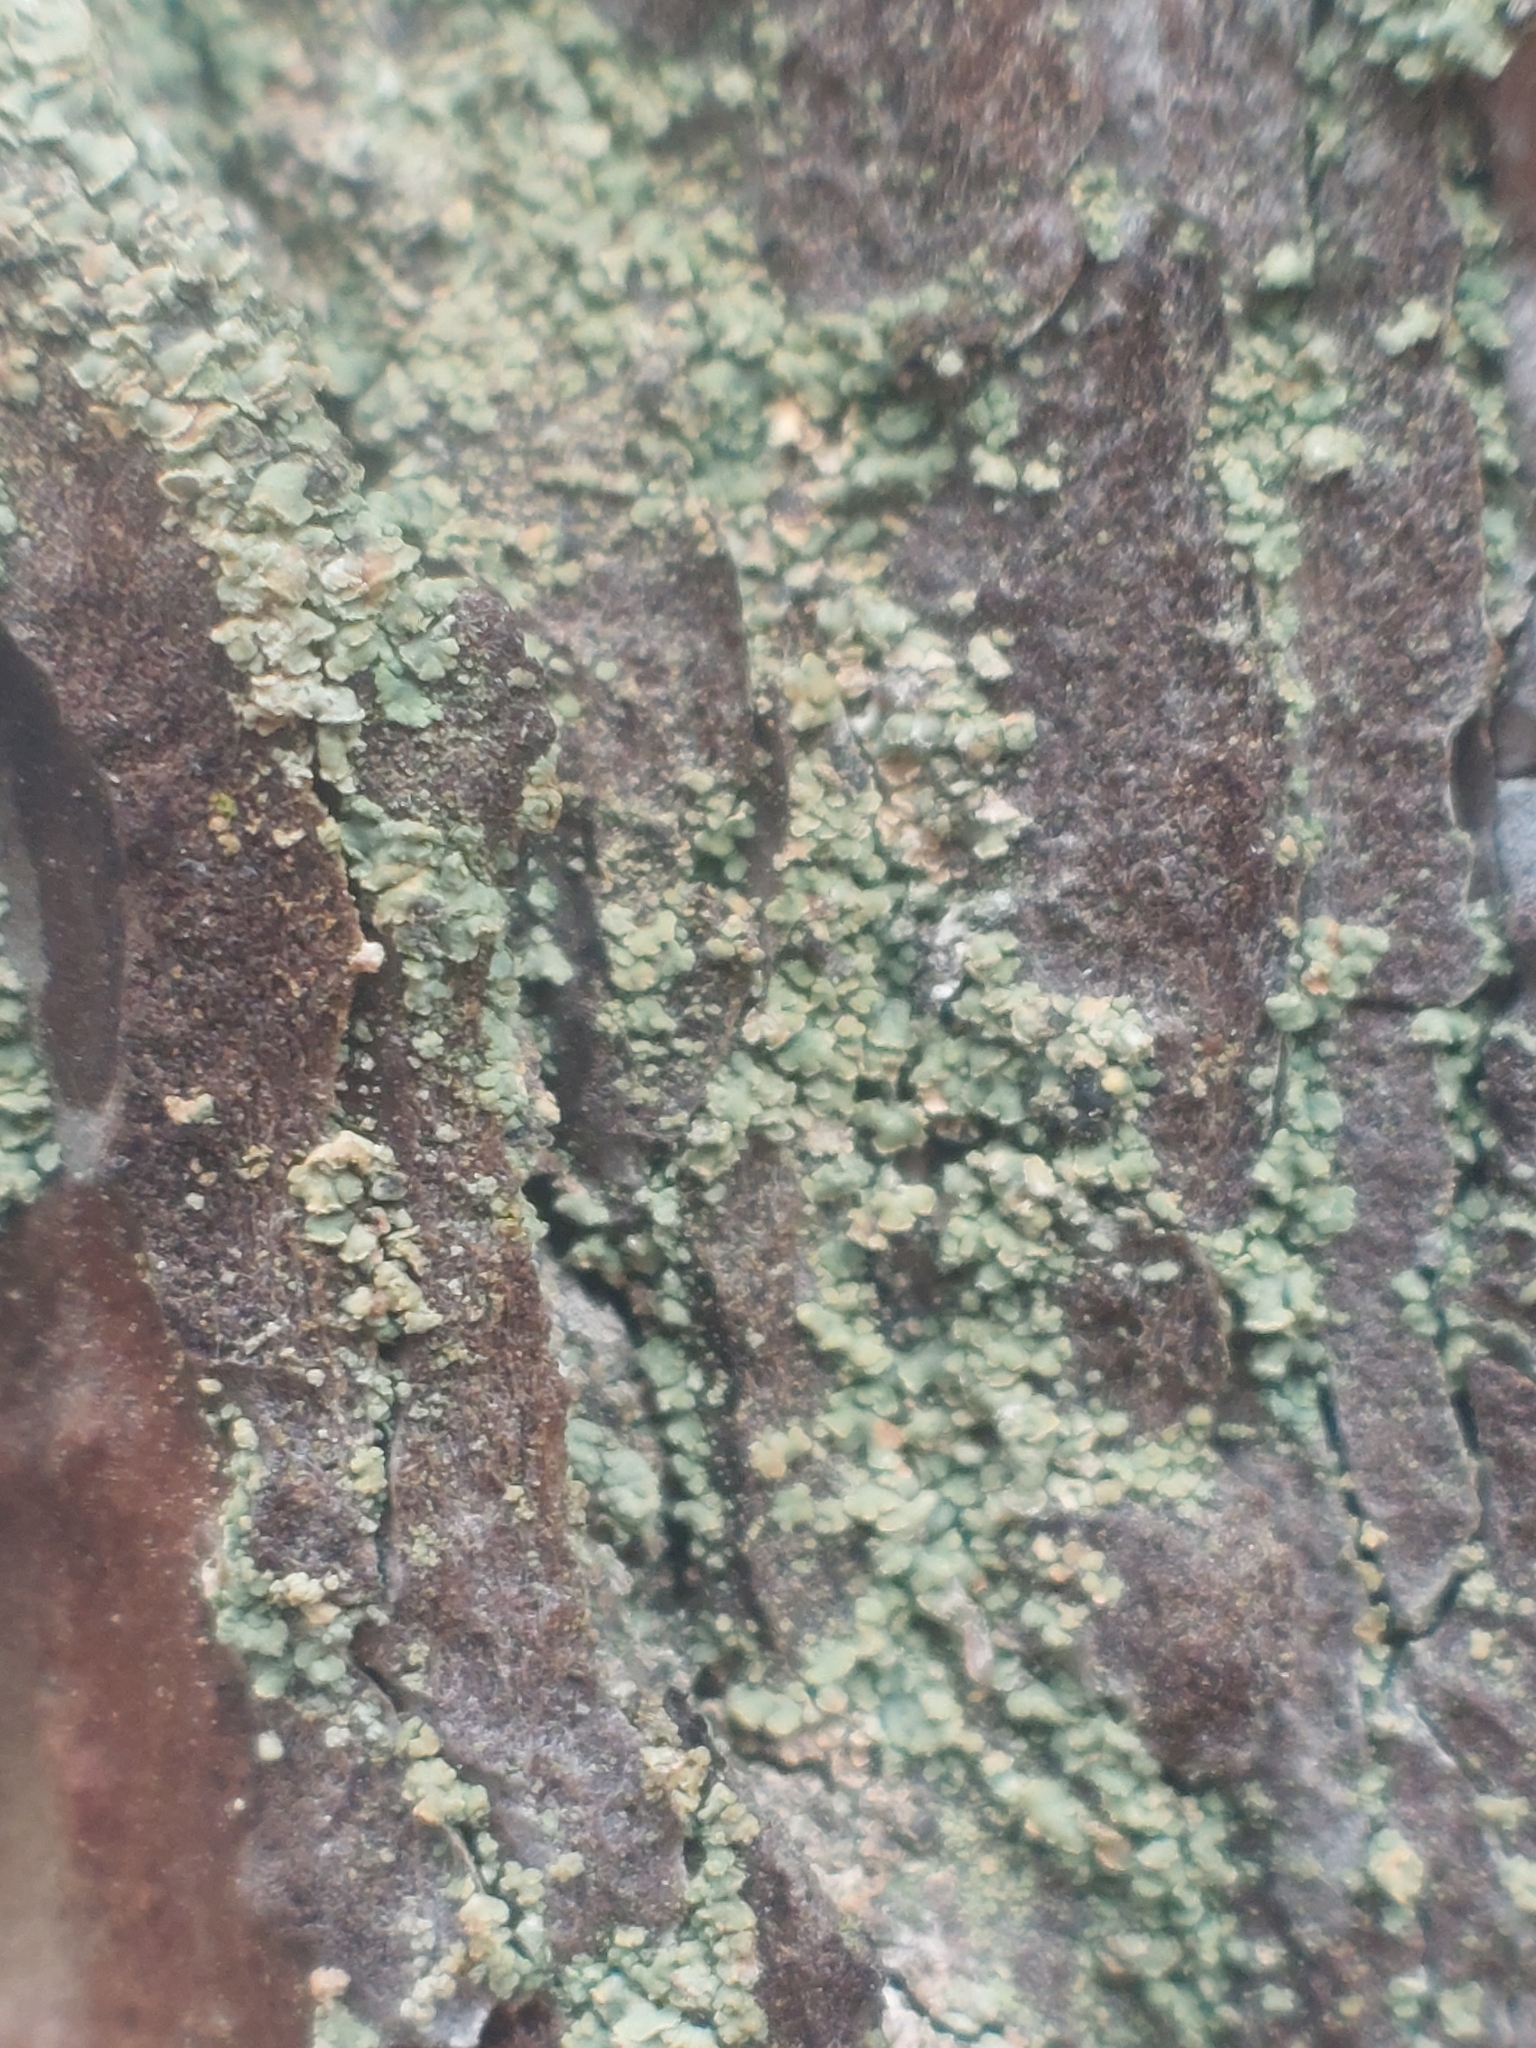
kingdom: Fungi
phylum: Ascomycota
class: Lecanoromycetes
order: Umbilicariales
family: Ophioparmaceae
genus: Hypocenomyce
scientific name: Hypocenomyce scalaris
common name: Common clam lichen
